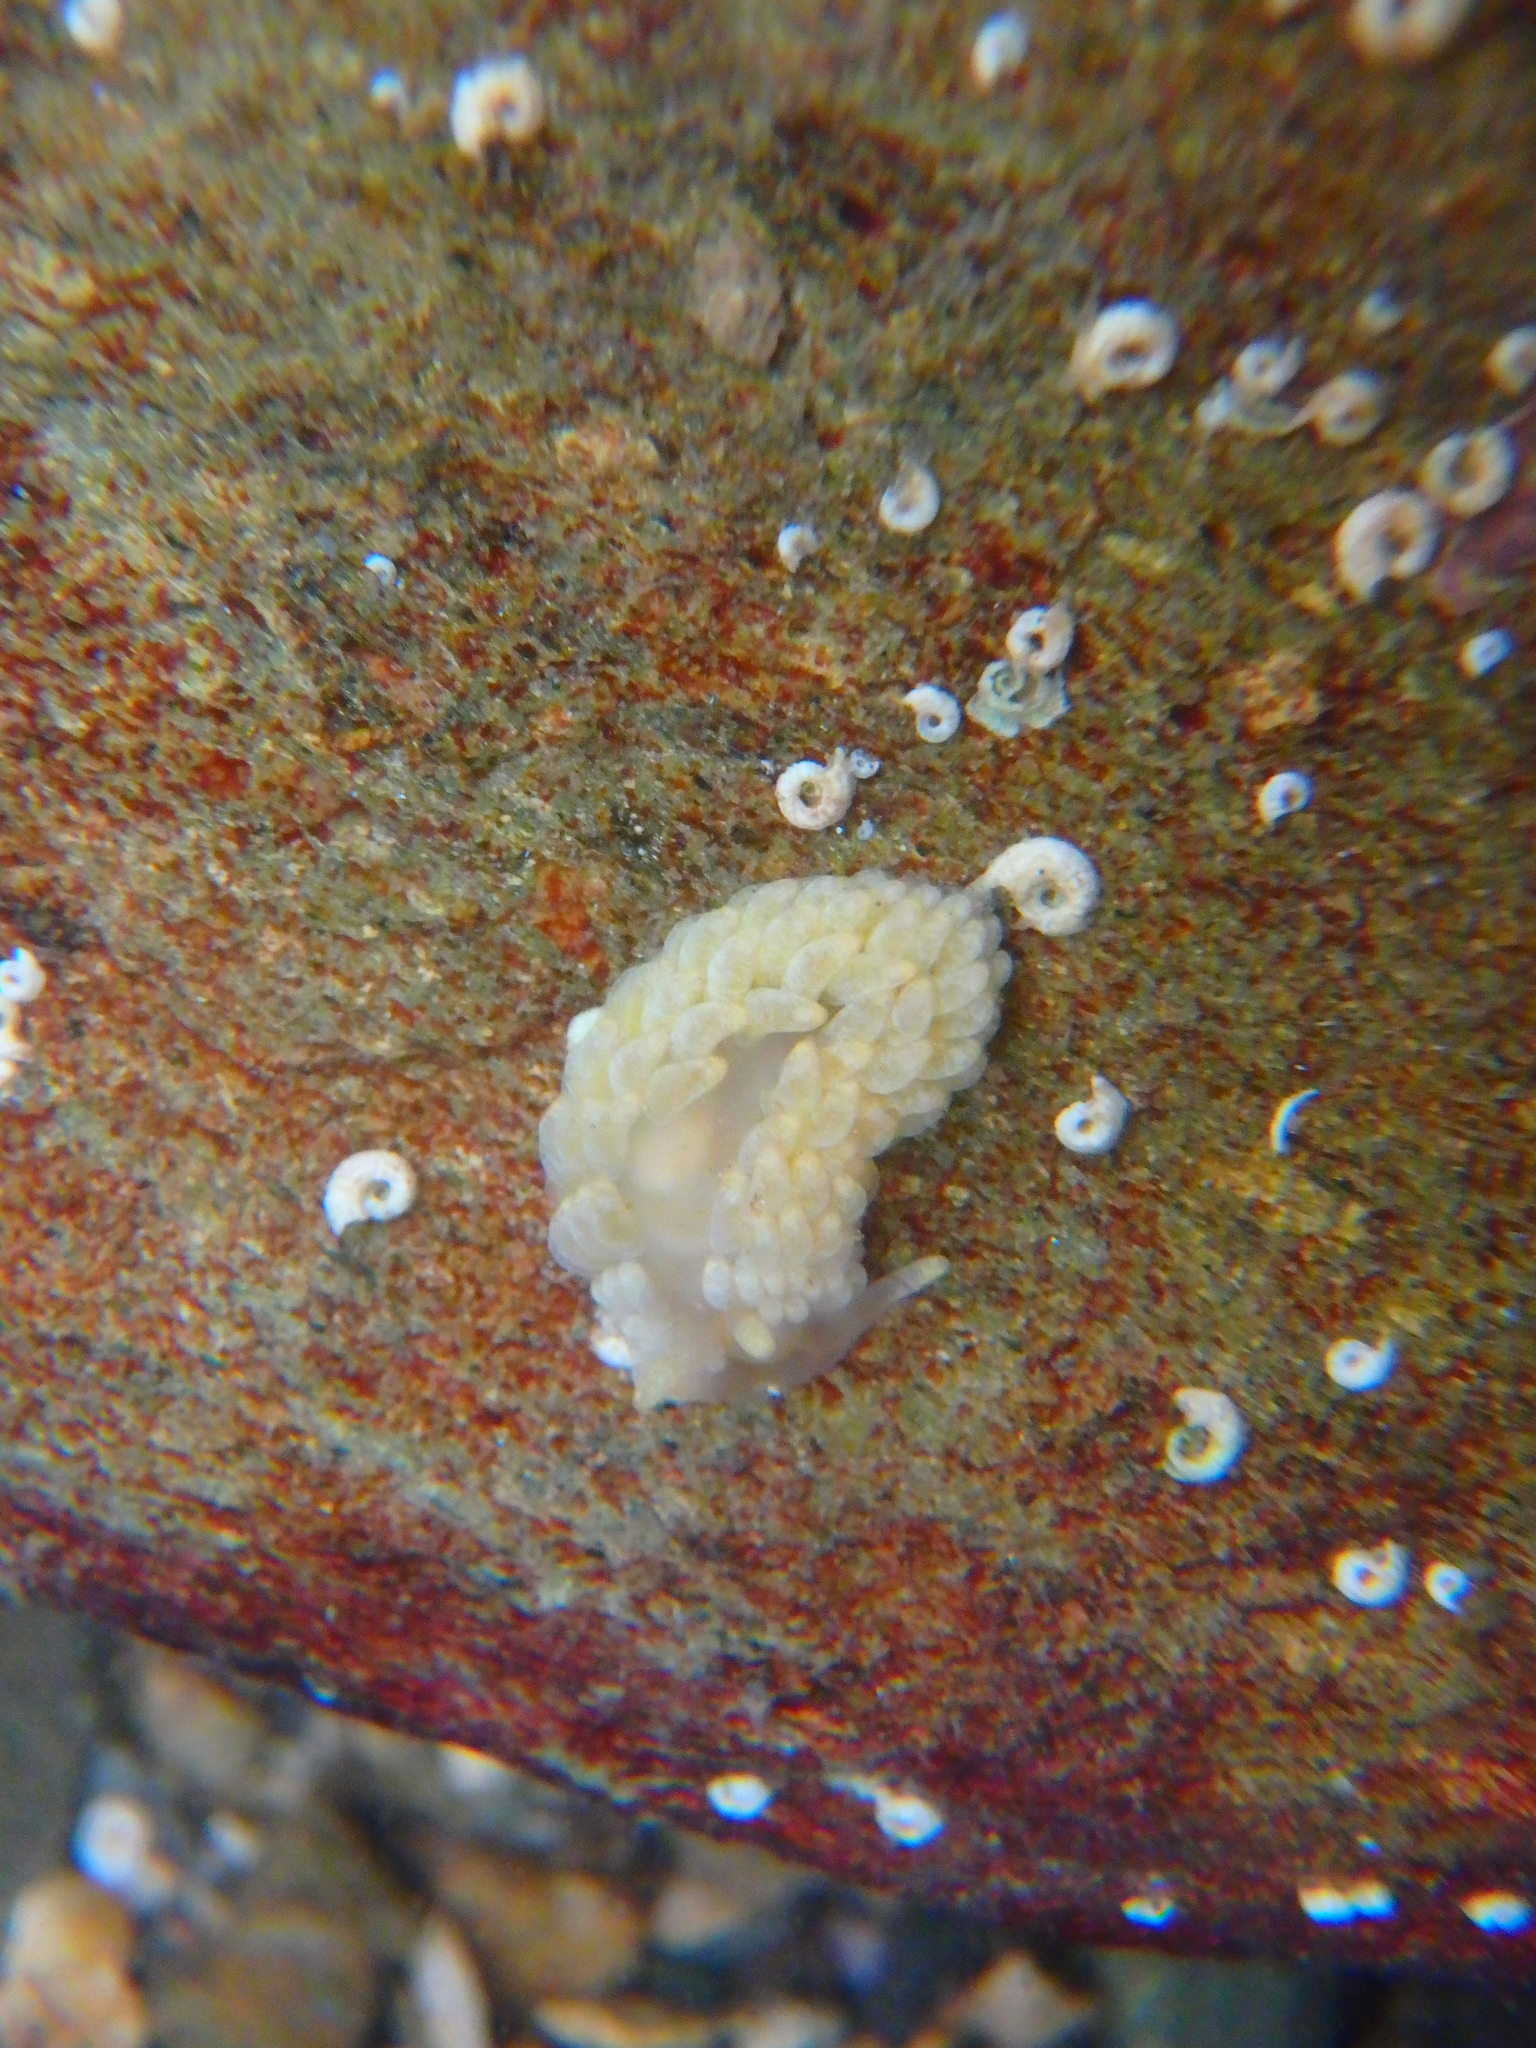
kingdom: Animalia
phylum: Mollusca
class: Gastropoda
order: Nudibranchia
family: Aeolidiidae
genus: Aeolidiella
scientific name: Aeolidiella alderi
